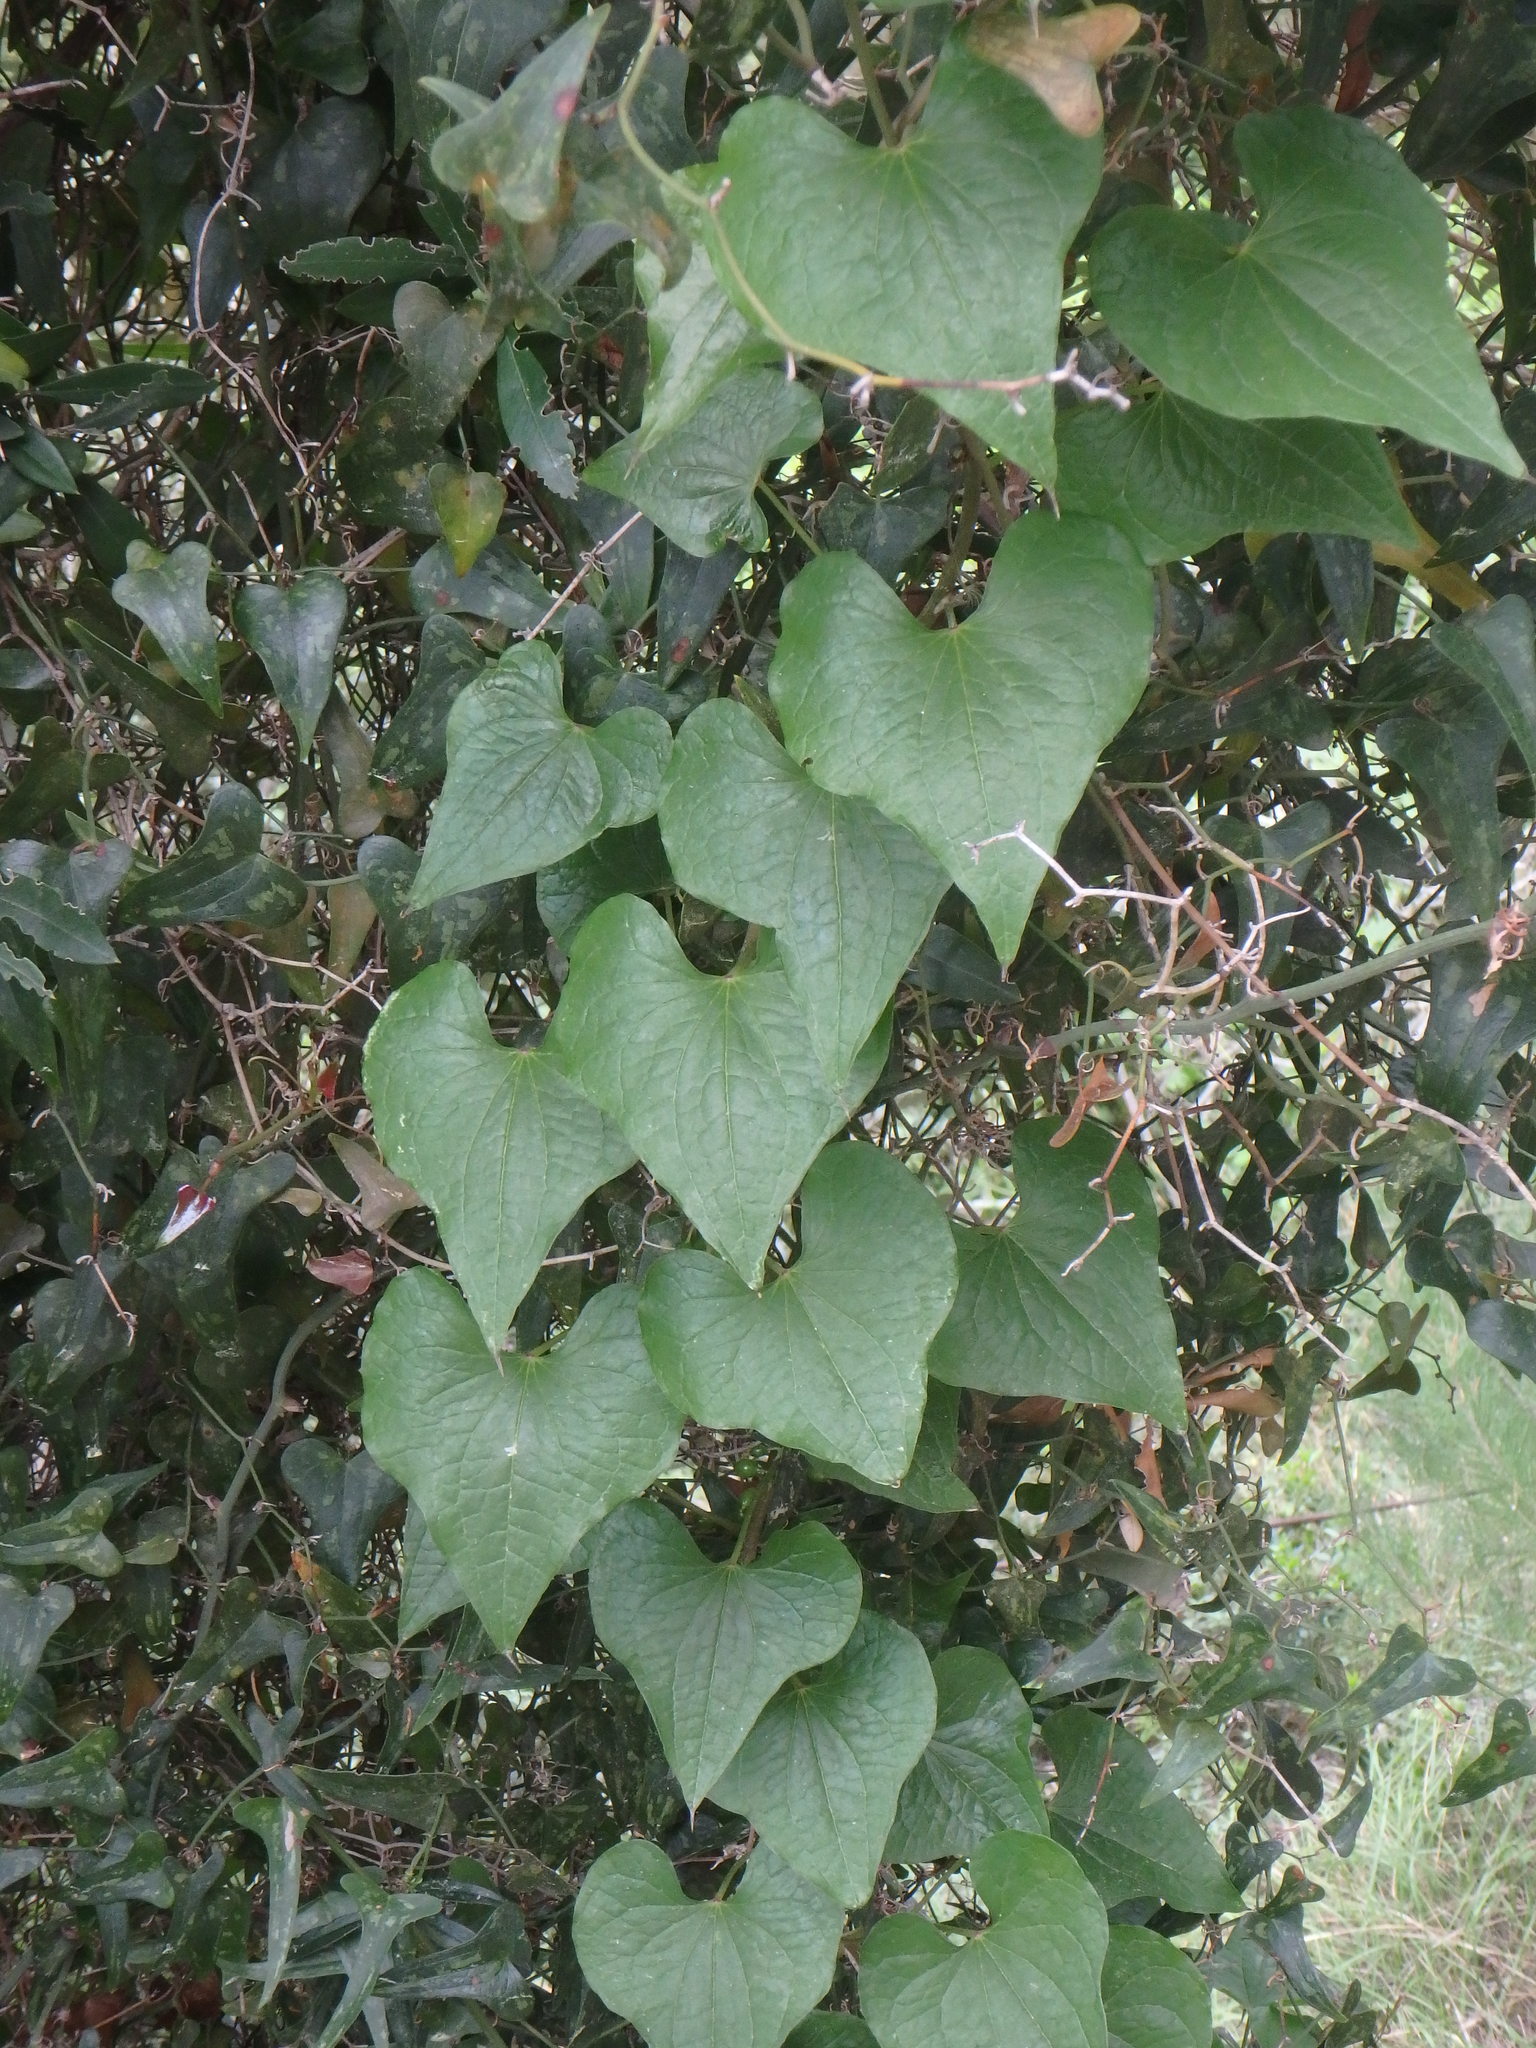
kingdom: Plantae
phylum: Tracheophyta
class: Liliopsida
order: Dioscoreales
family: Dioscoreaceae
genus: Dioscorea
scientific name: Dioscorea communis
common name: Black-bindweed
